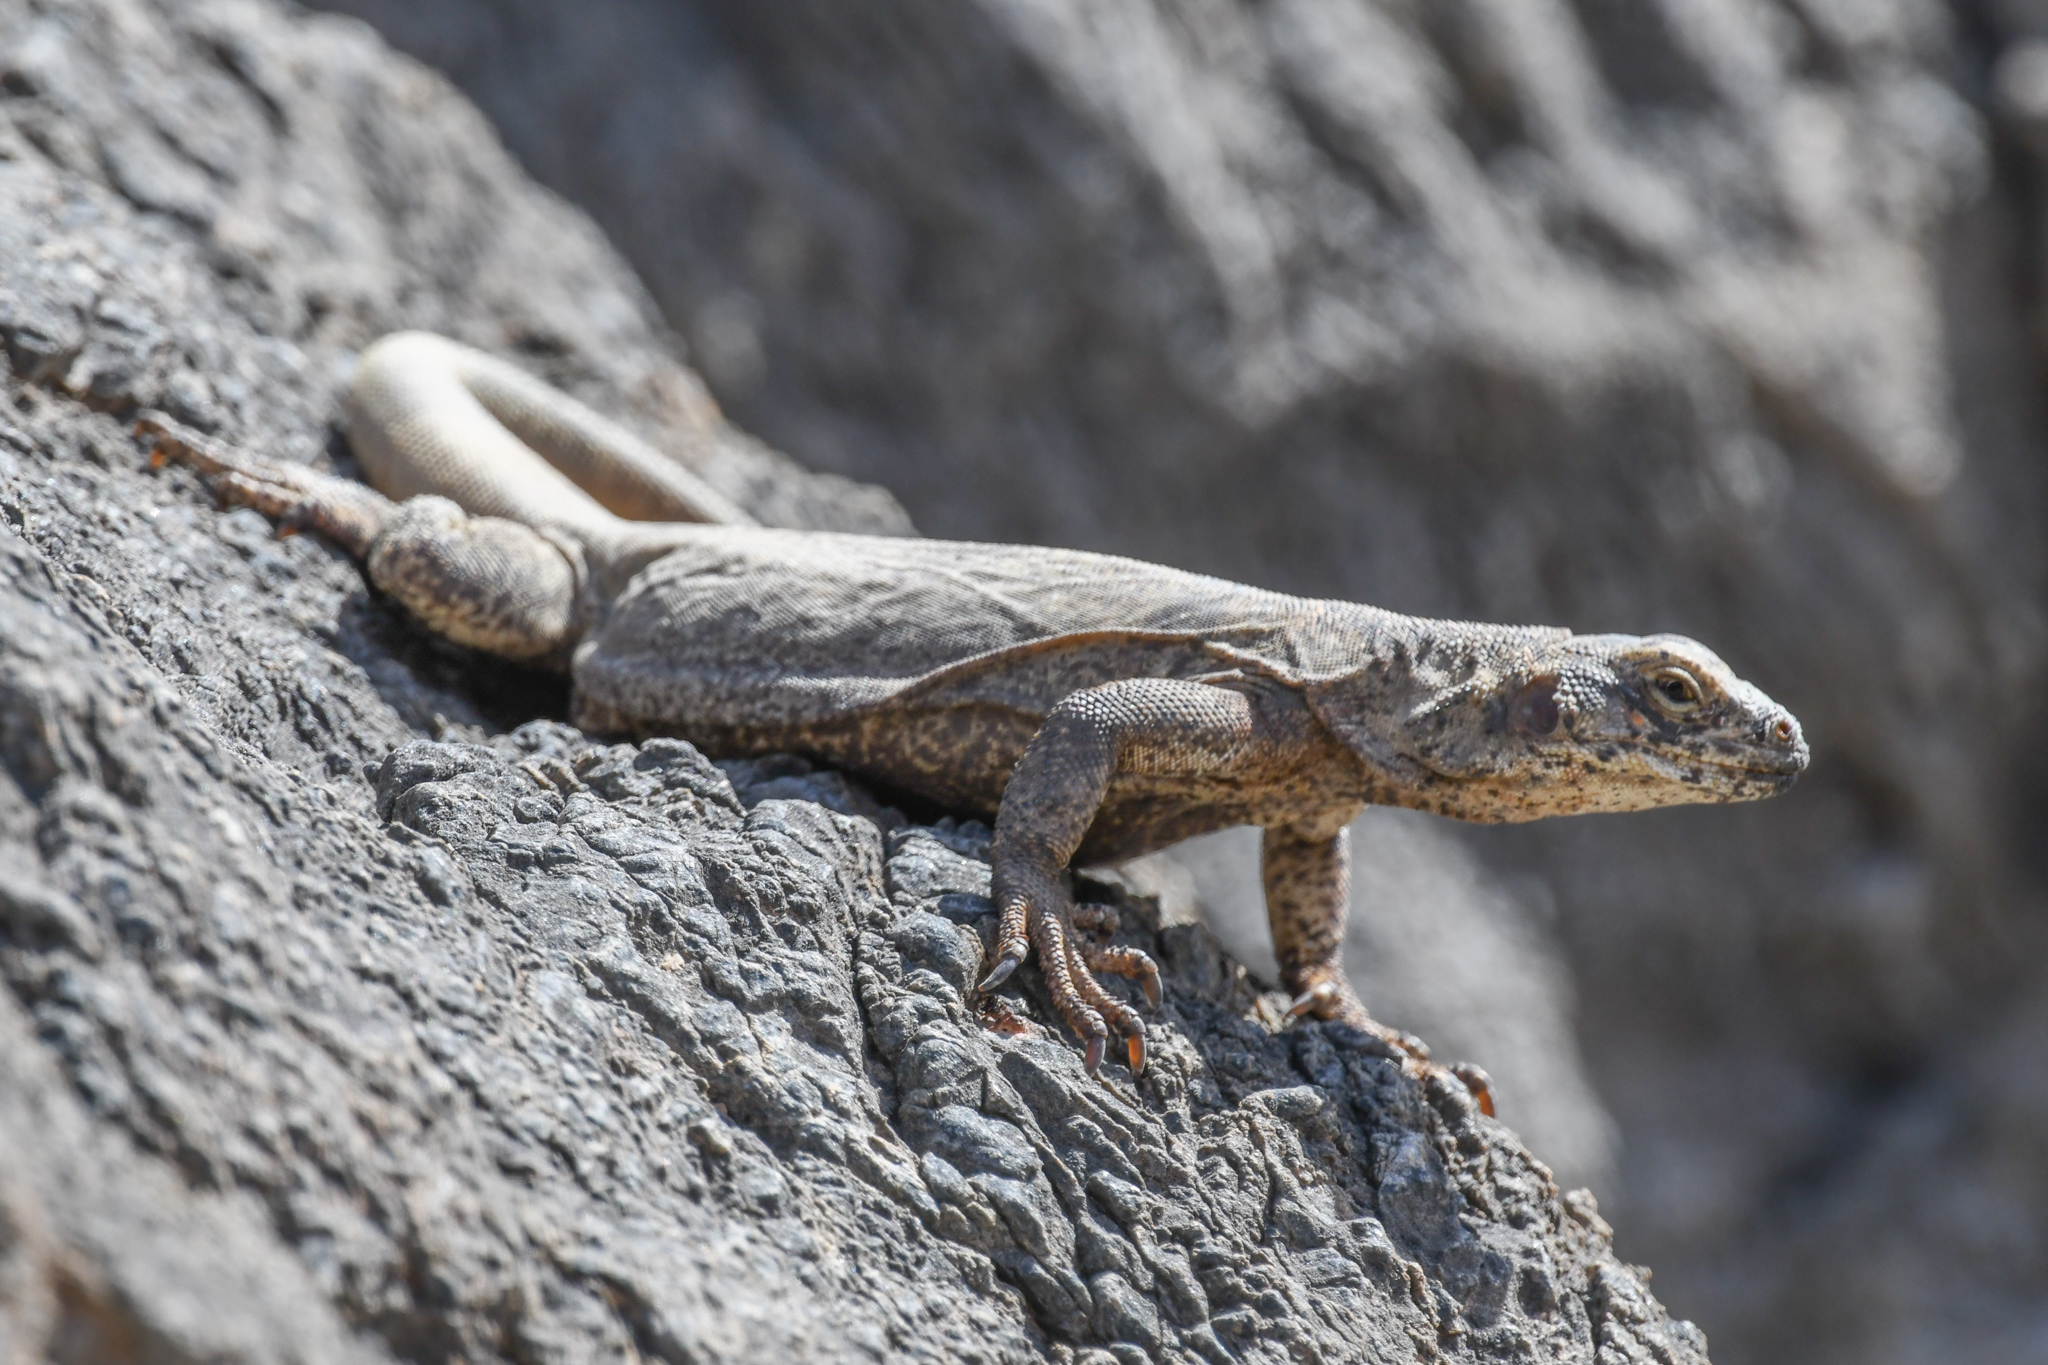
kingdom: Animalia
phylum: Chordata
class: Squamata
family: Iguanidae
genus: Sauromalus
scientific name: Sauromalus ater
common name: Northern chuckwalla
